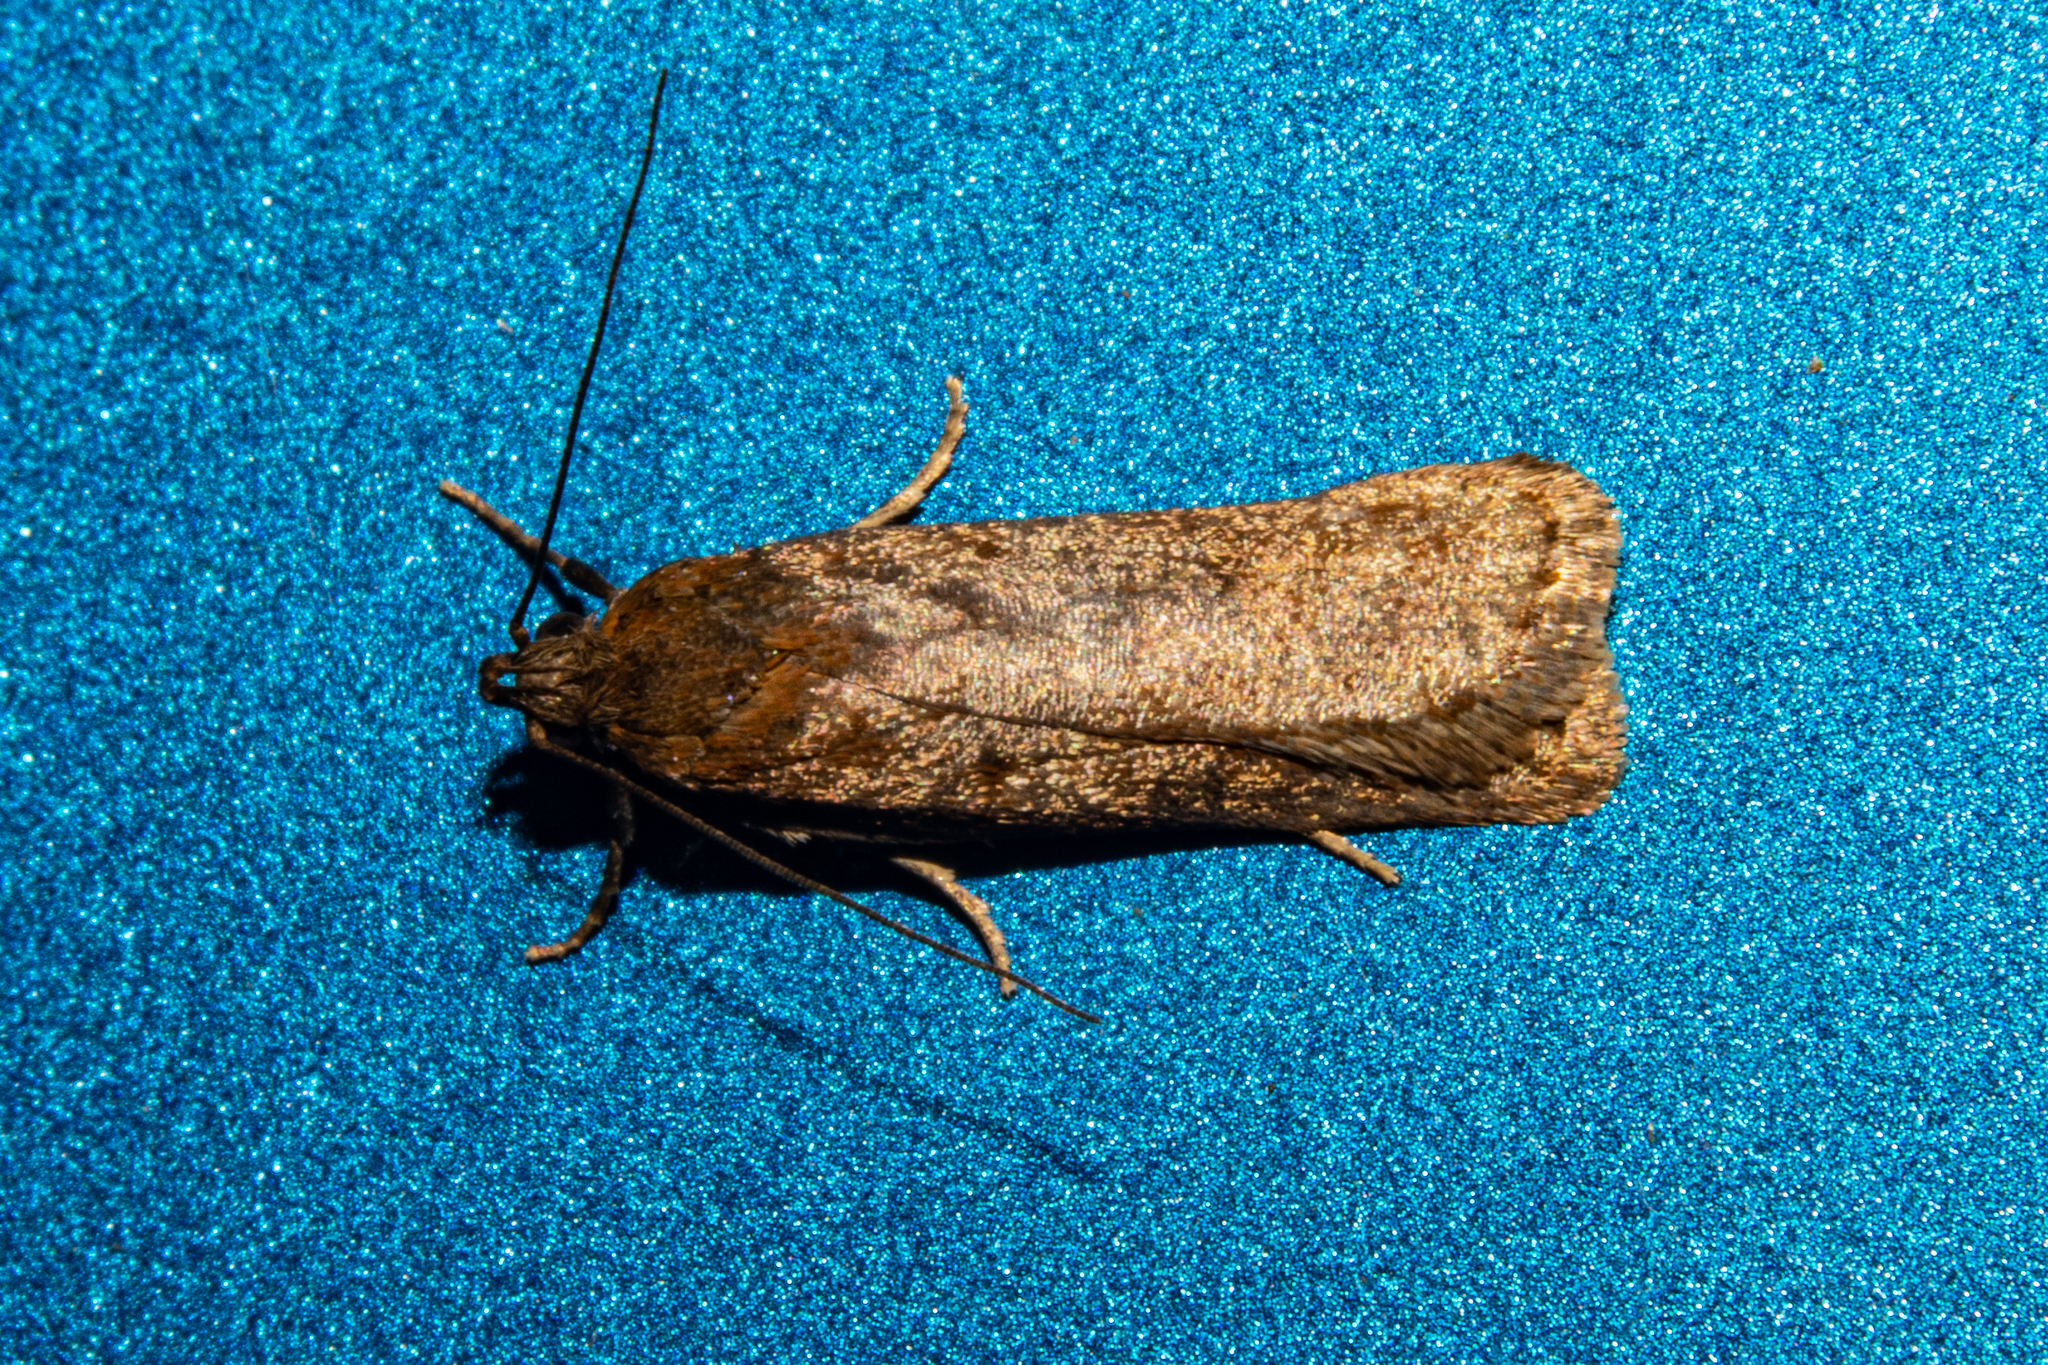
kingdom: Animalia
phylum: Arthropoda
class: Insecta
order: Lepidoptera
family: Depressariidae
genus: Phaeosaces
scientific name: Phaeosaces apocrypta
